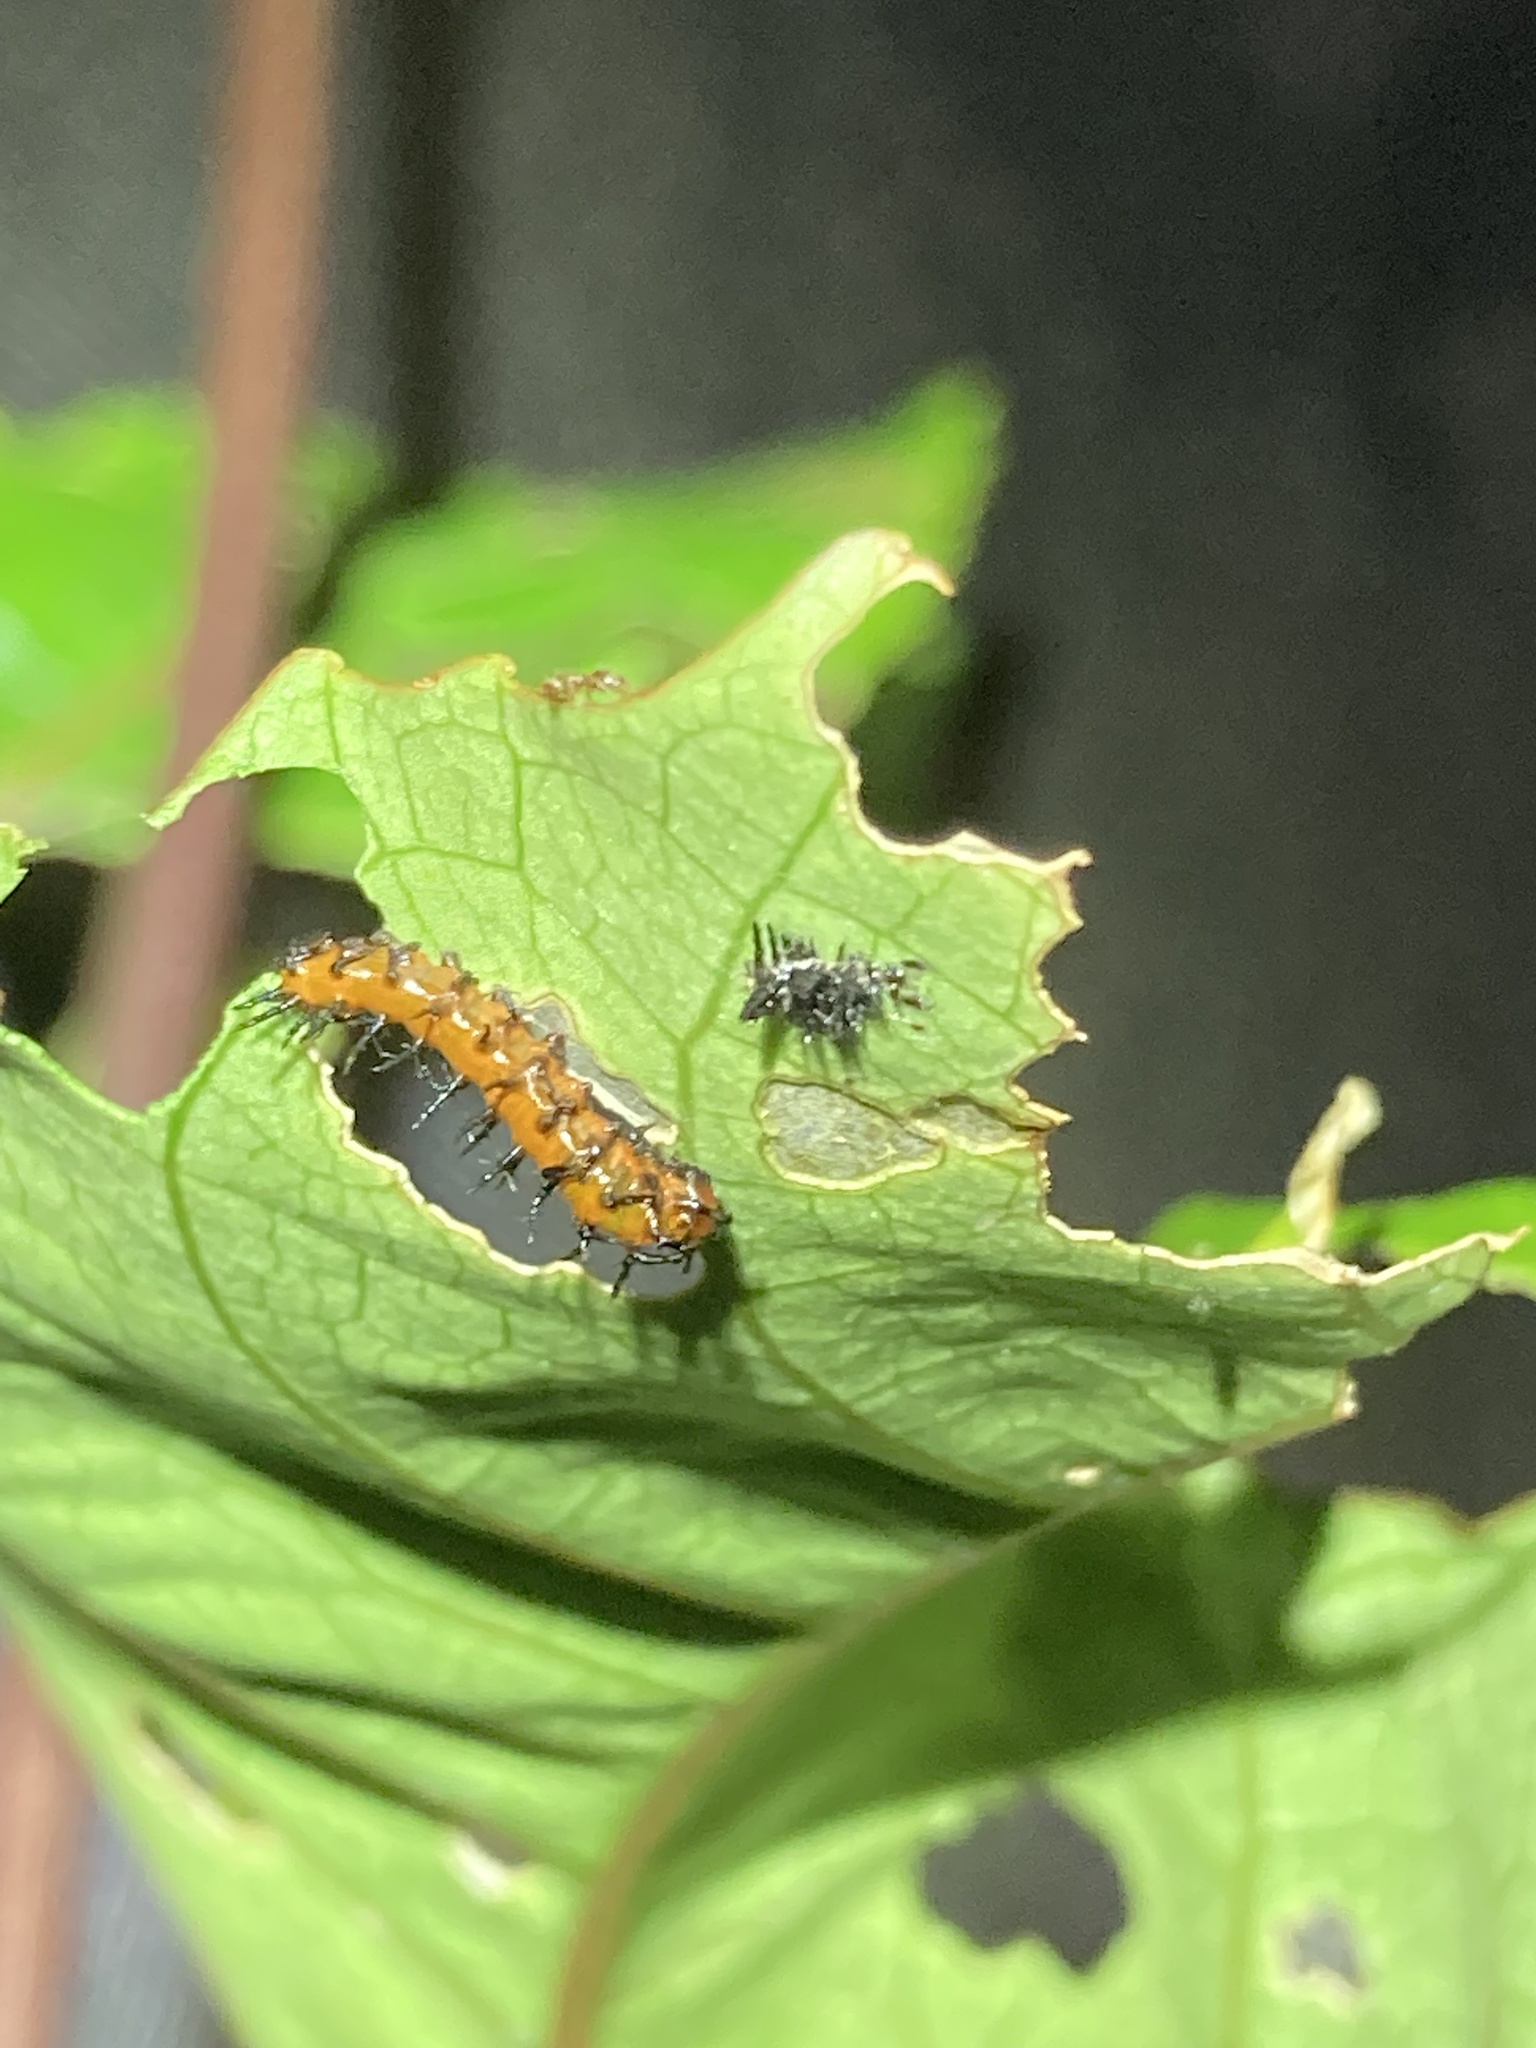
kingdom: Animalia
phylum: Arthropoda
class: Insecta
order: Lepidoptera
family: Nymphalidae
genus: Dione
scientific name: Dione vanillae
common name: Gulf fritillary
